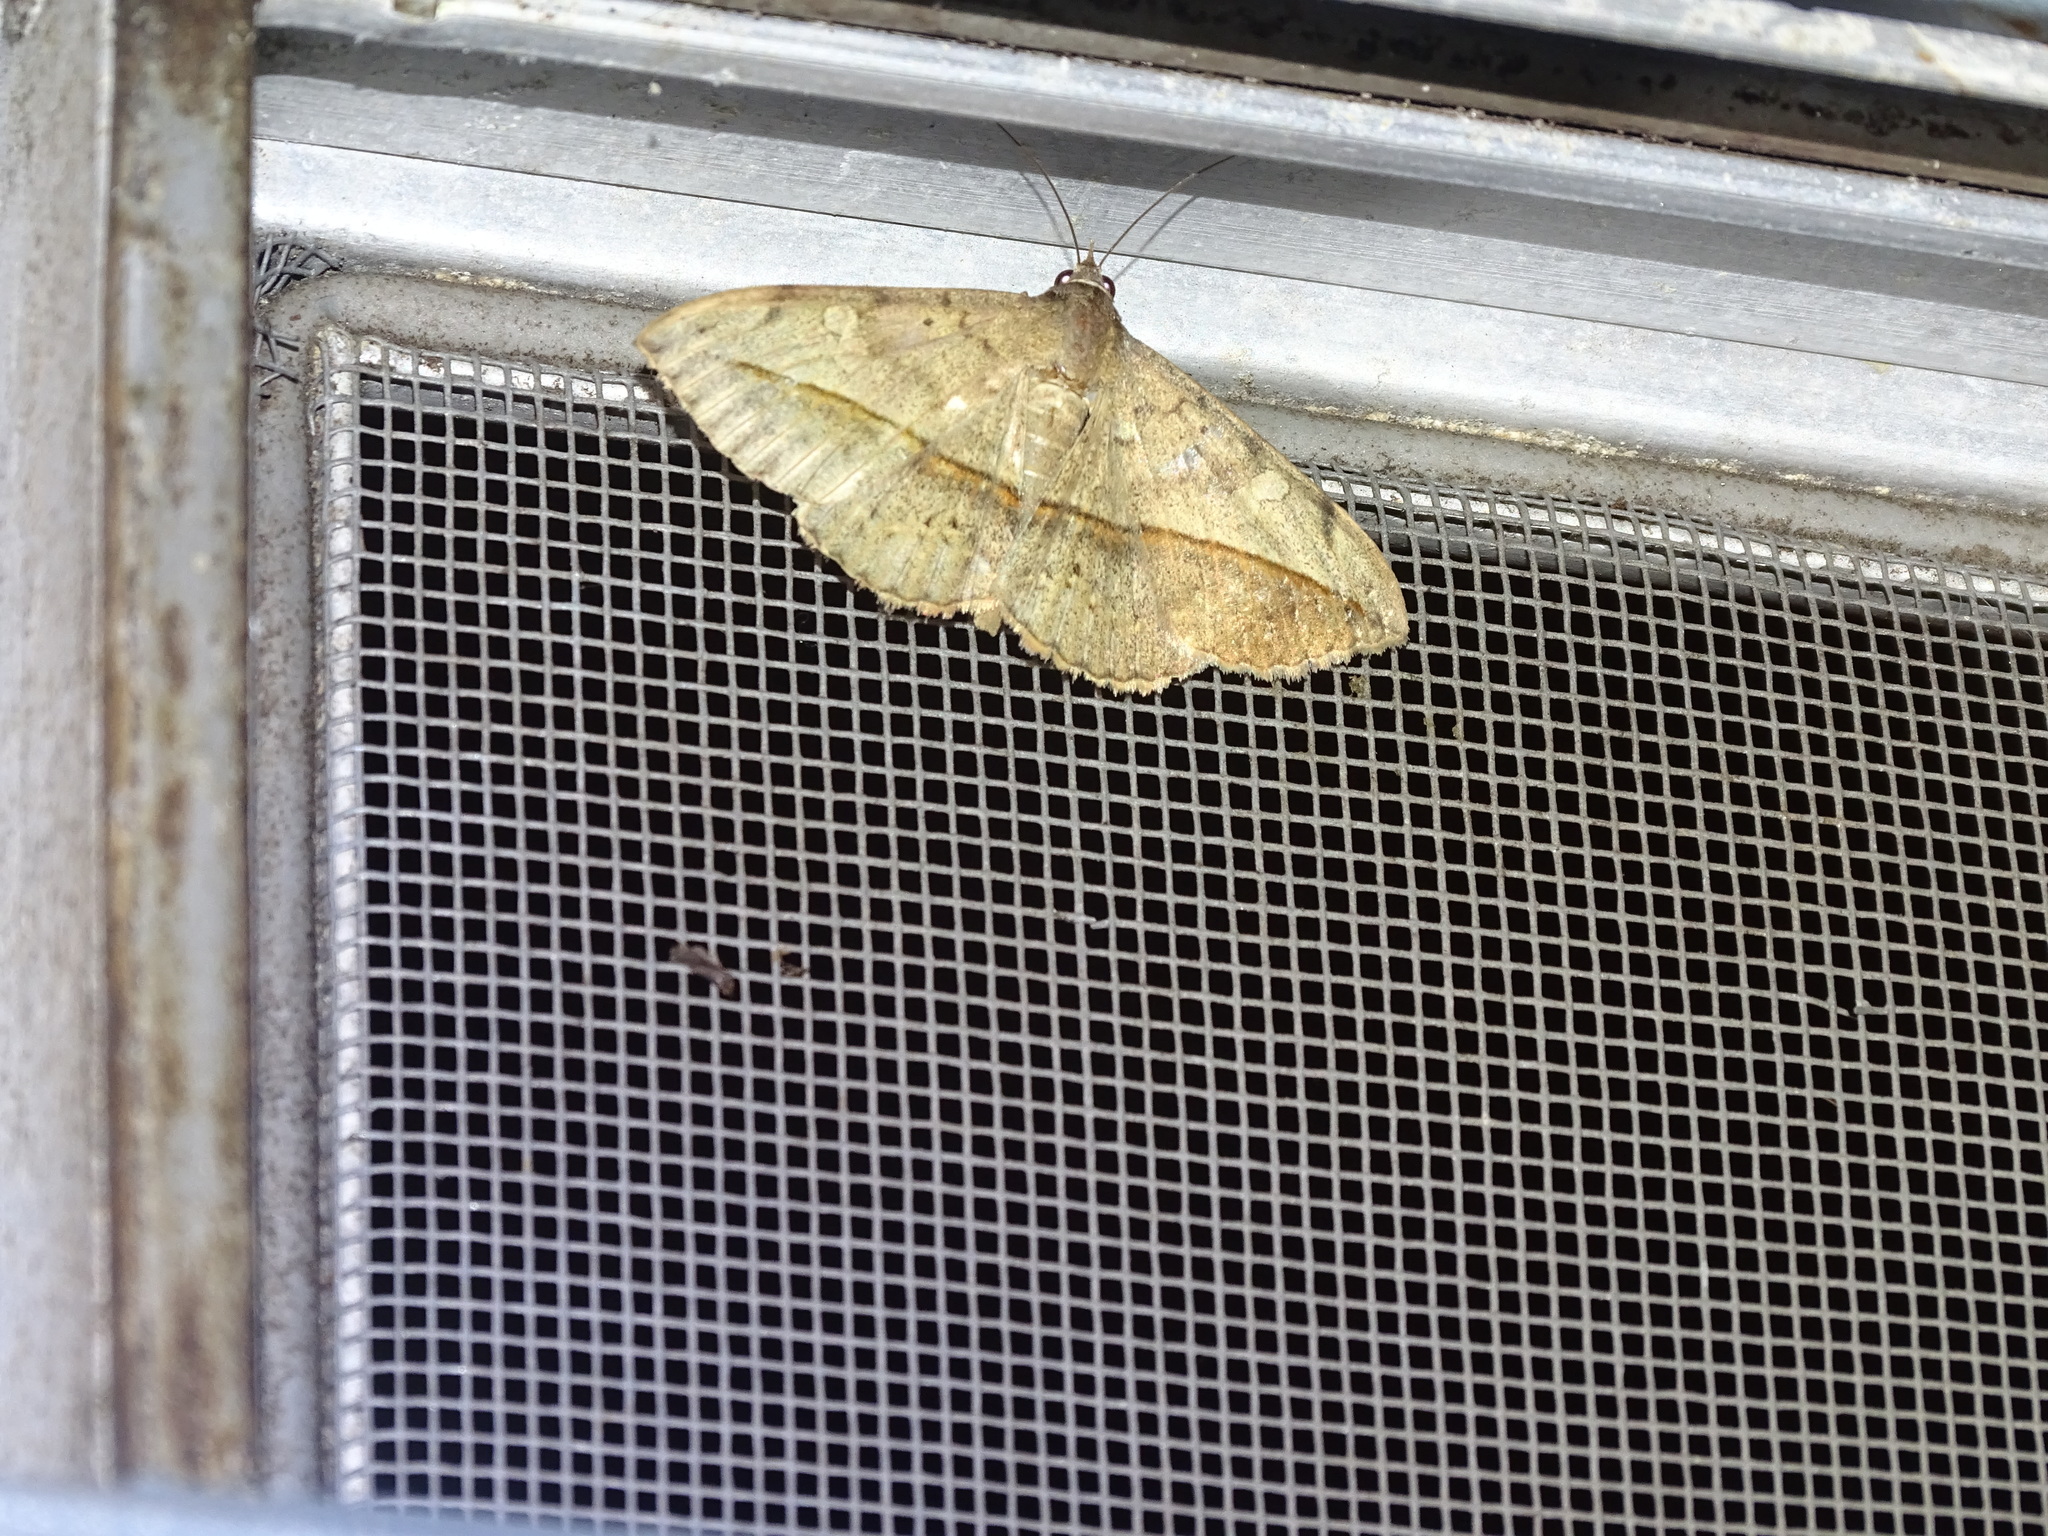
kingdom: Animalia
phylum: Arthropoda
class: Insecta
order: Lepidoptera
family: Erebidae
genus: Anticarsia
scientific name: Anticarsia gemmatalis
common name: Cutworm moth
